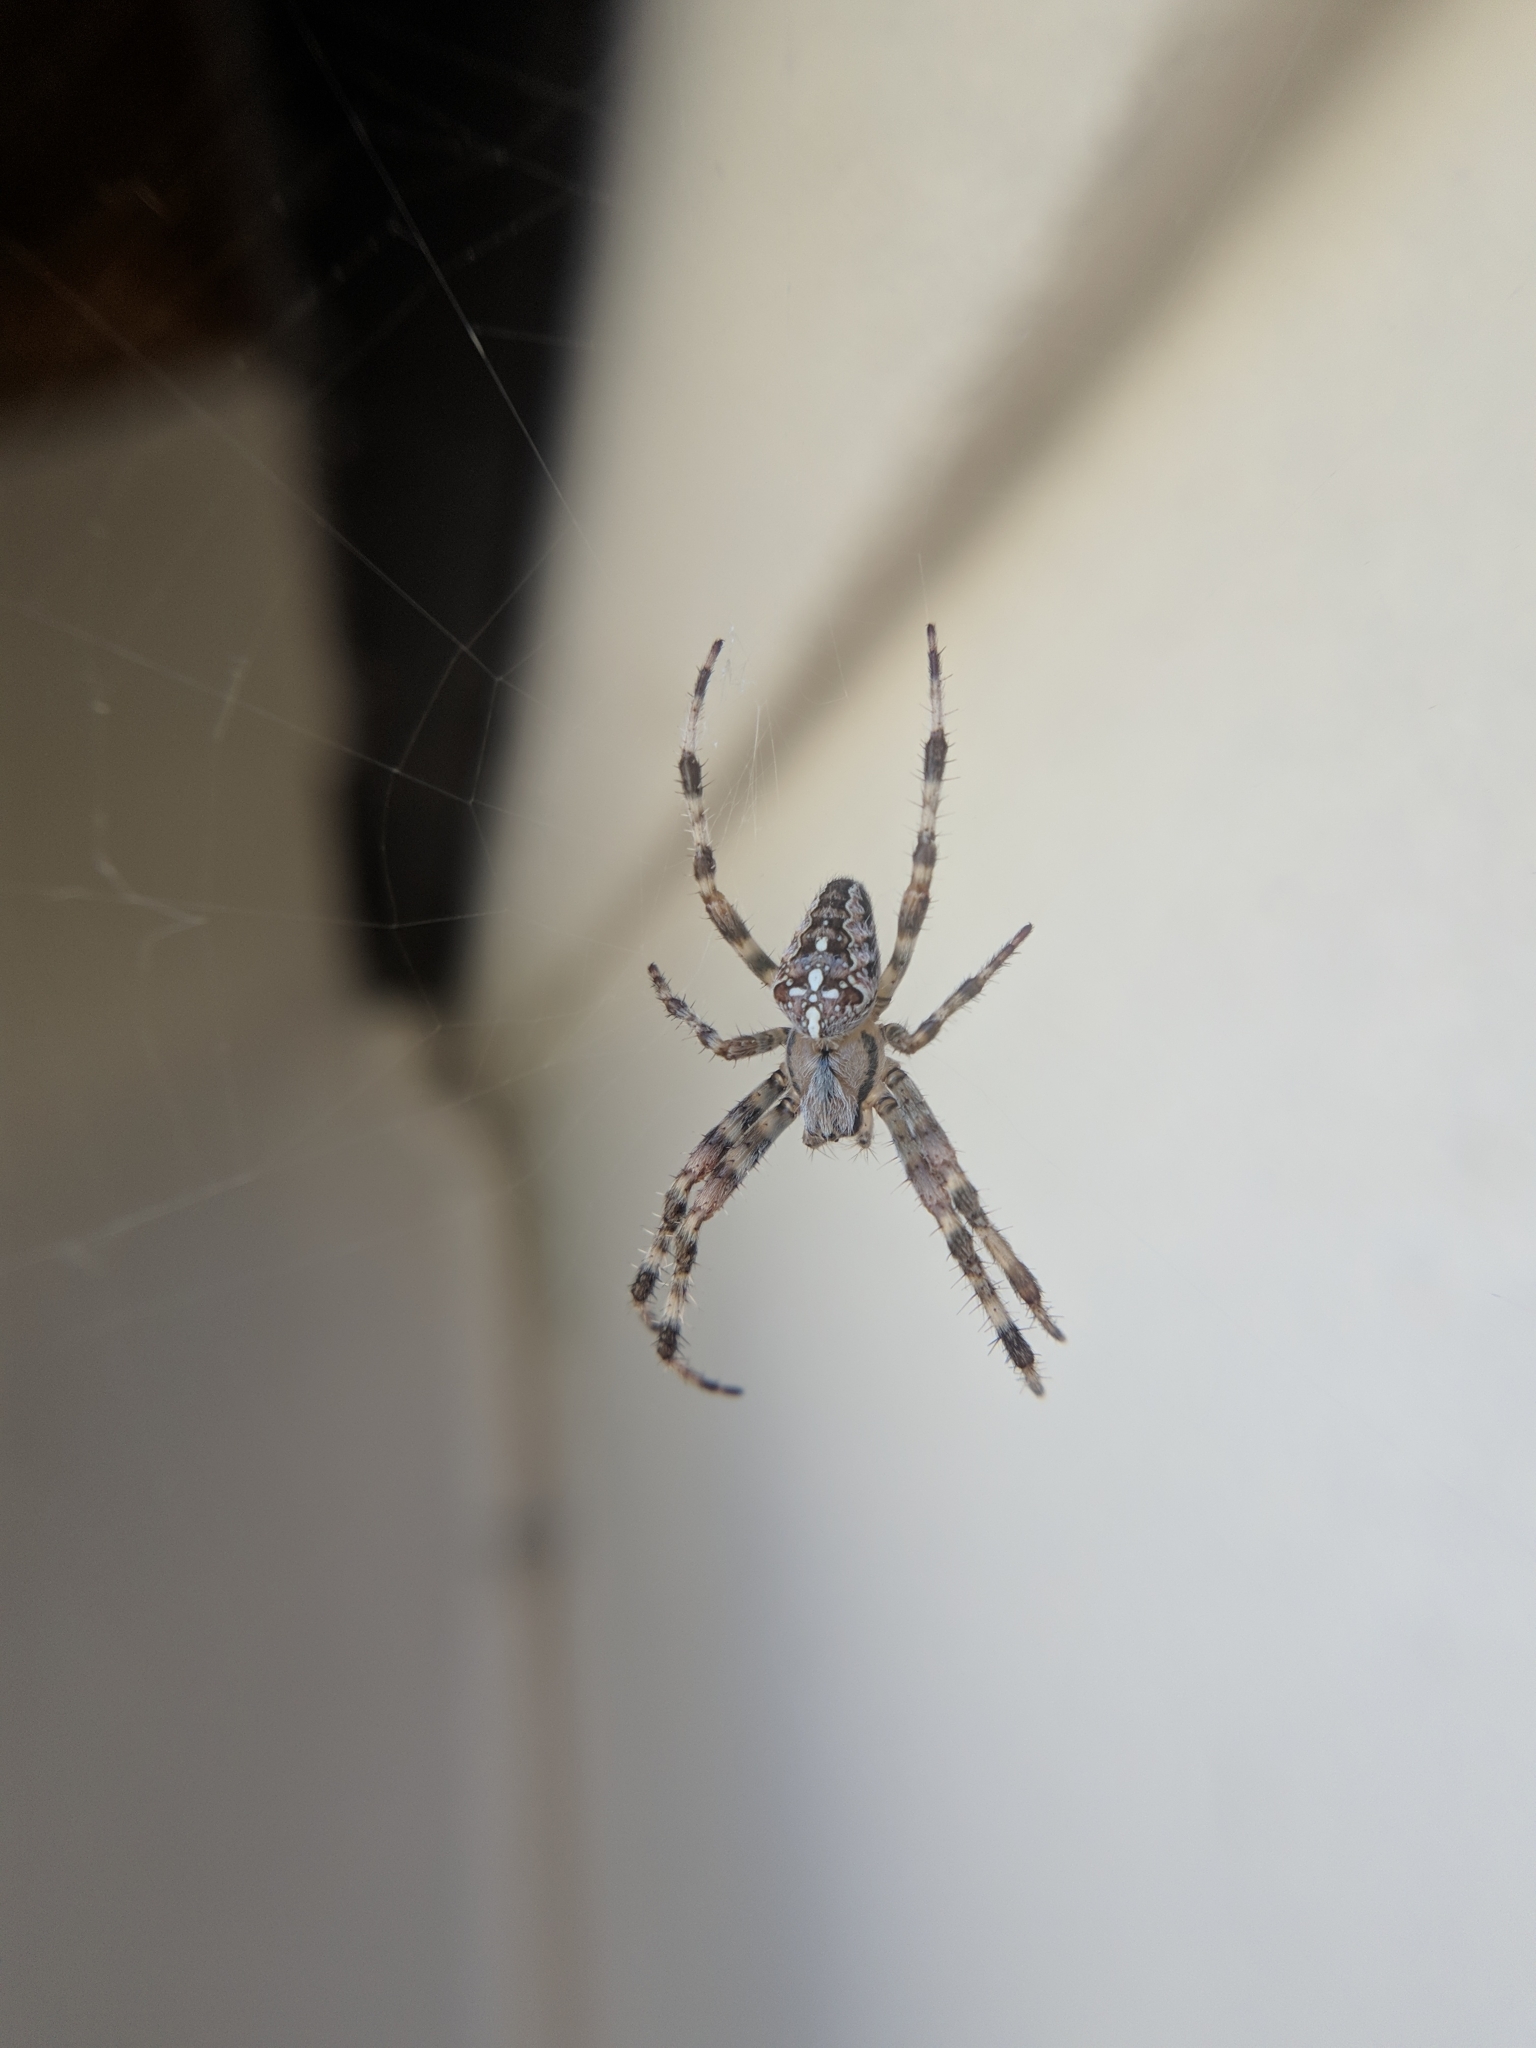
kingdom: Animalia
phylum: Arthropoda
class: Arachnida
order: Araneae
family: Araneidae
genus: Araneus
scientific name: Araneus diadematus
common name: Cross orbweaver
